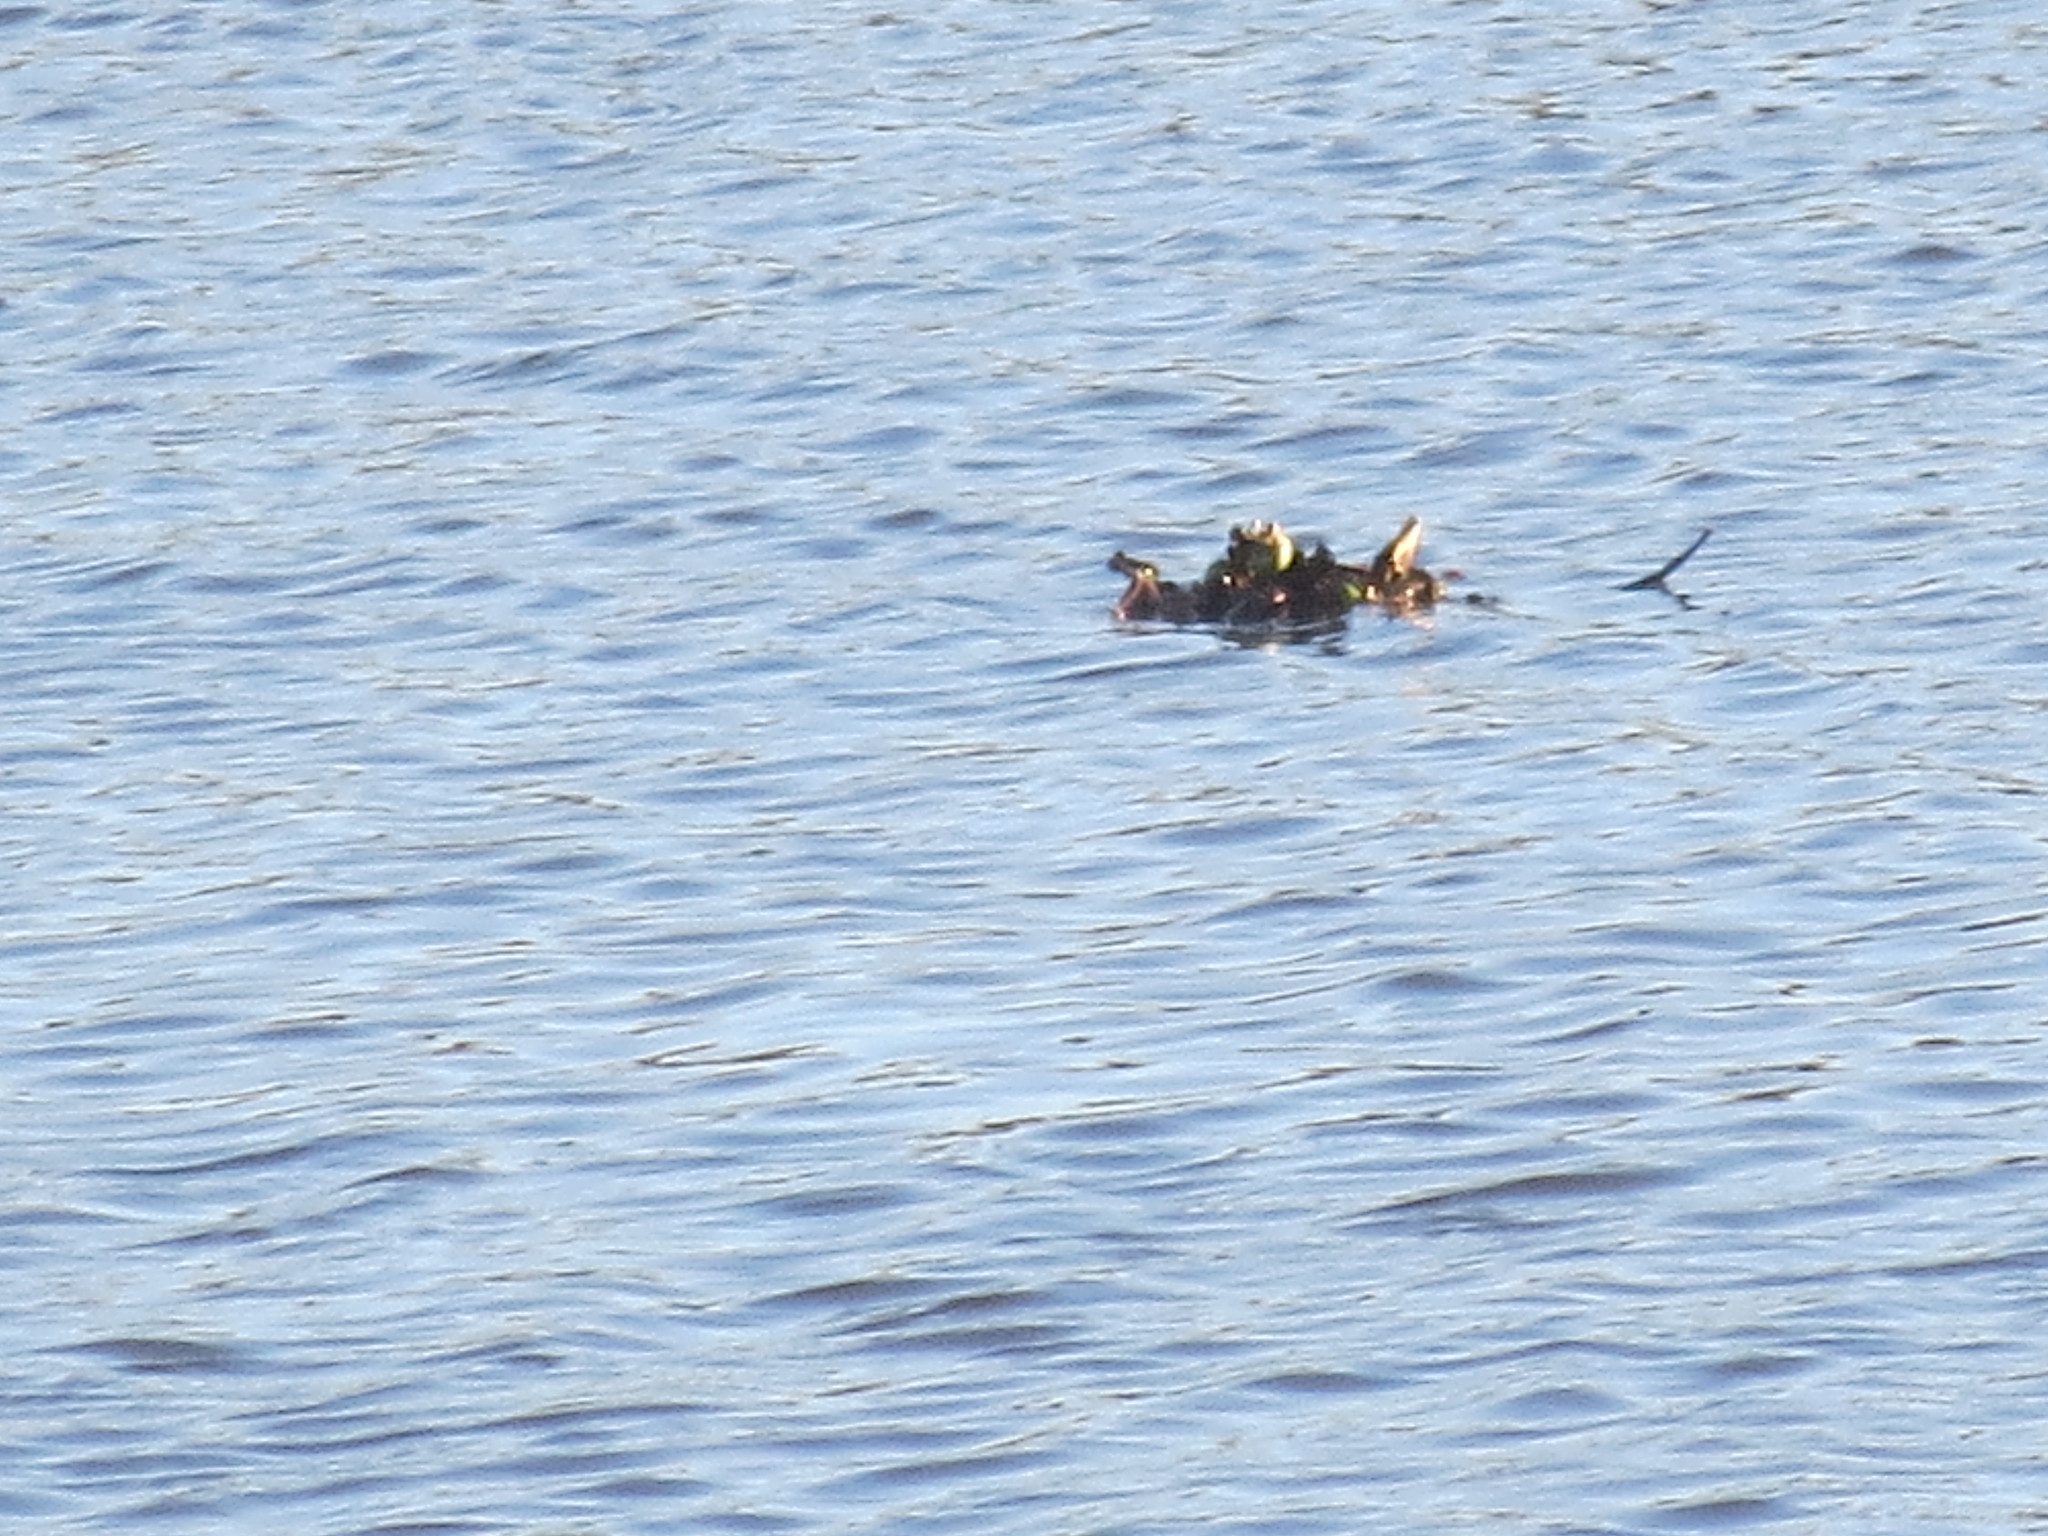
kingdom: Plantae
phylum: Tracheophyta
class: Liliopsida
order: Commelinales
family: Pontederiaceae
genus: Pontederia
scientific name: Pontederia crassipes
